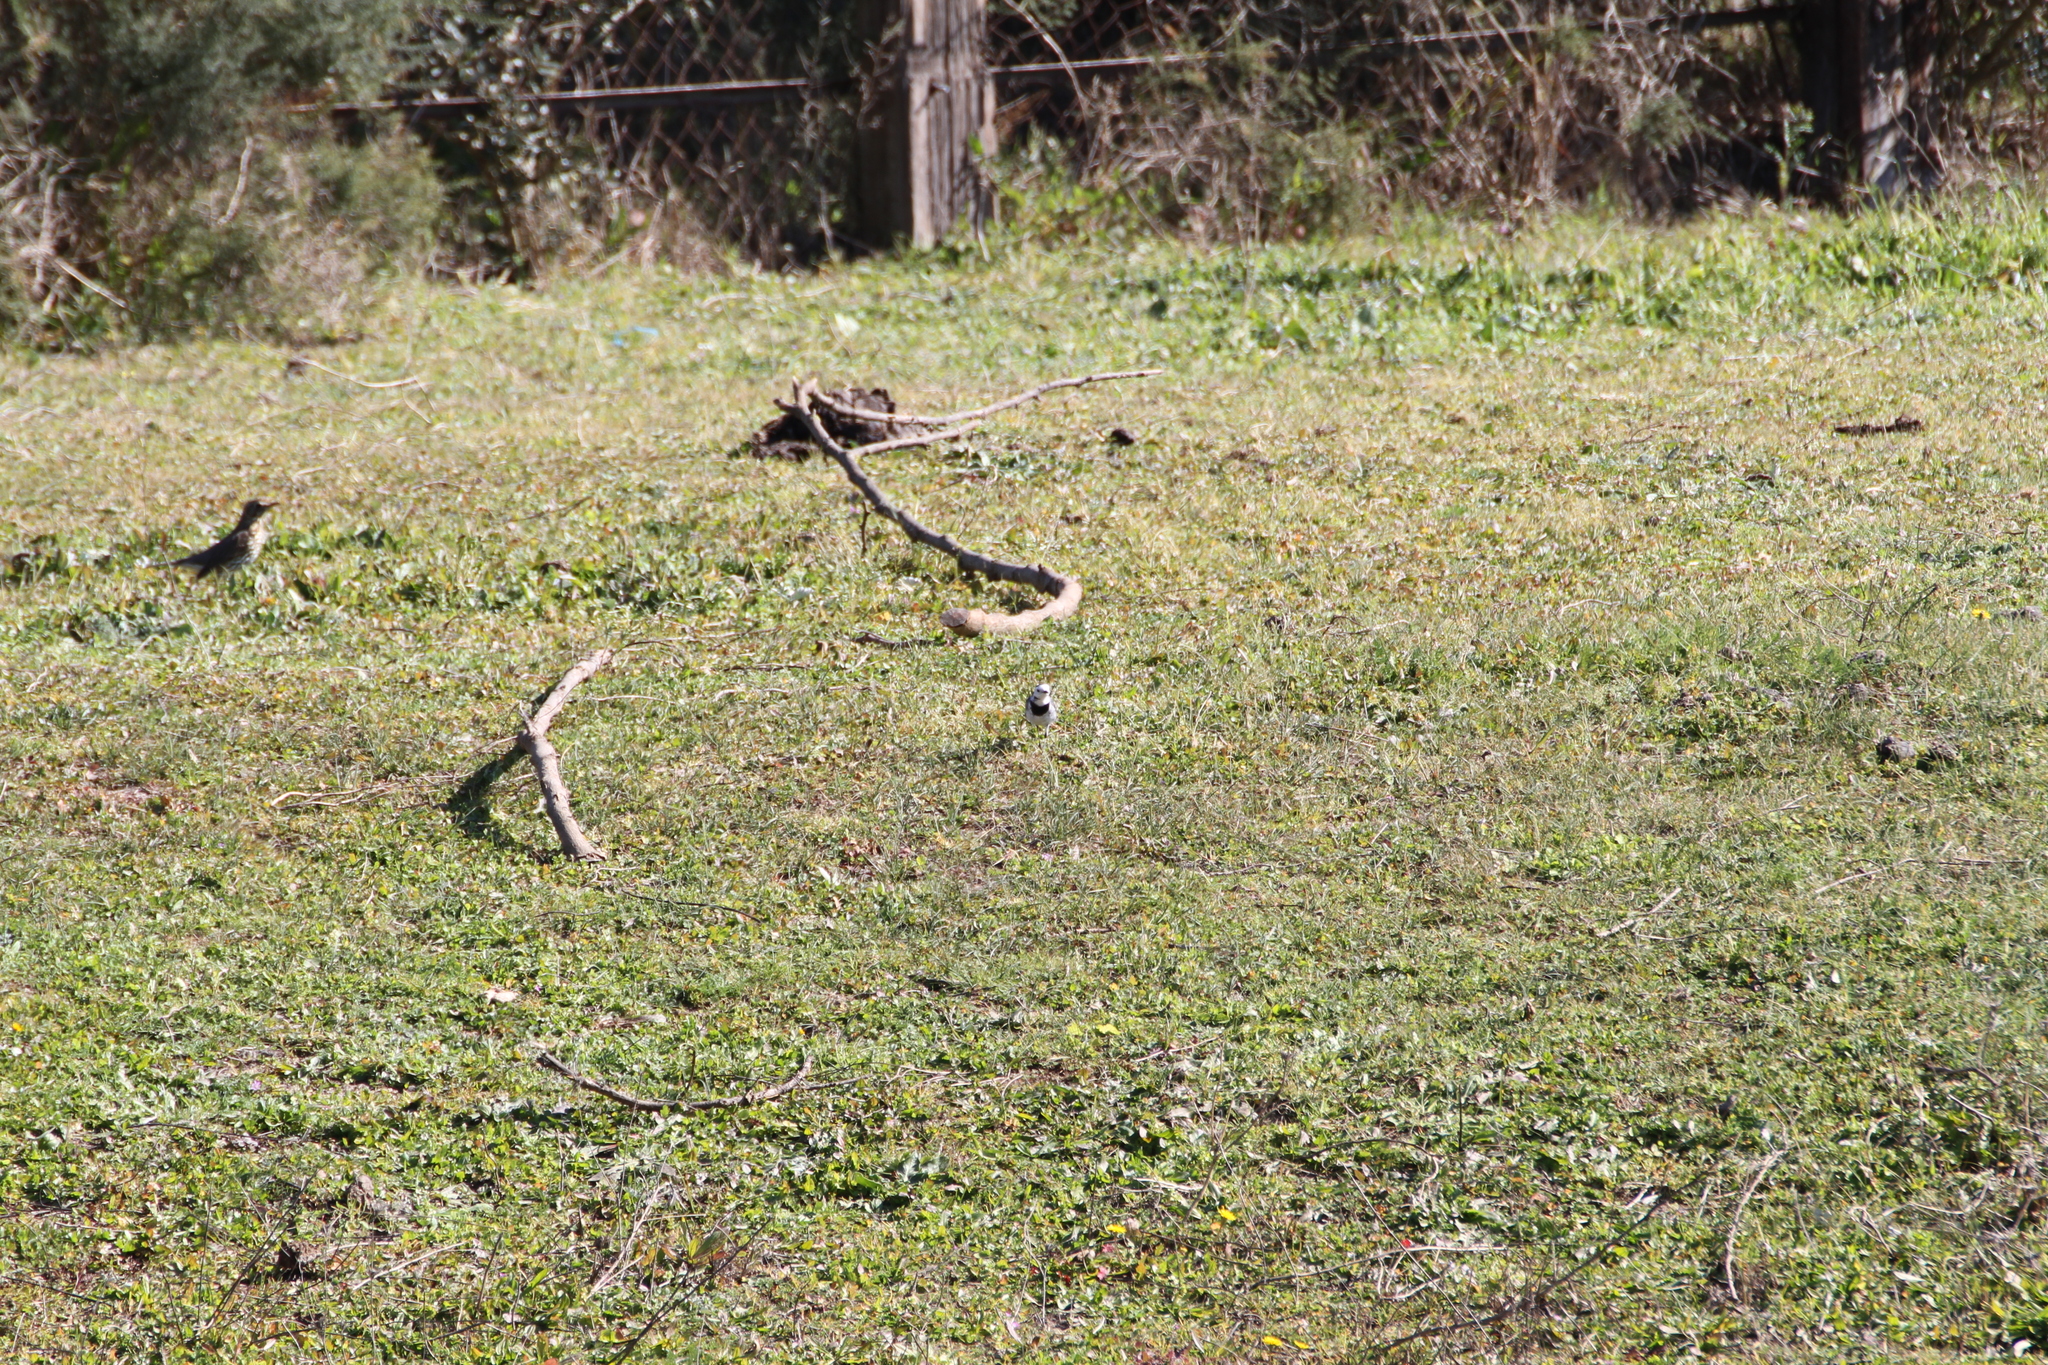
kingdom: Animalia
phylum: Chordata
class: Aves
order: Passeriformes
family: Motacillidae
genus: Motacilla
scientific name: Motacilla alba
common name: White wagtail
